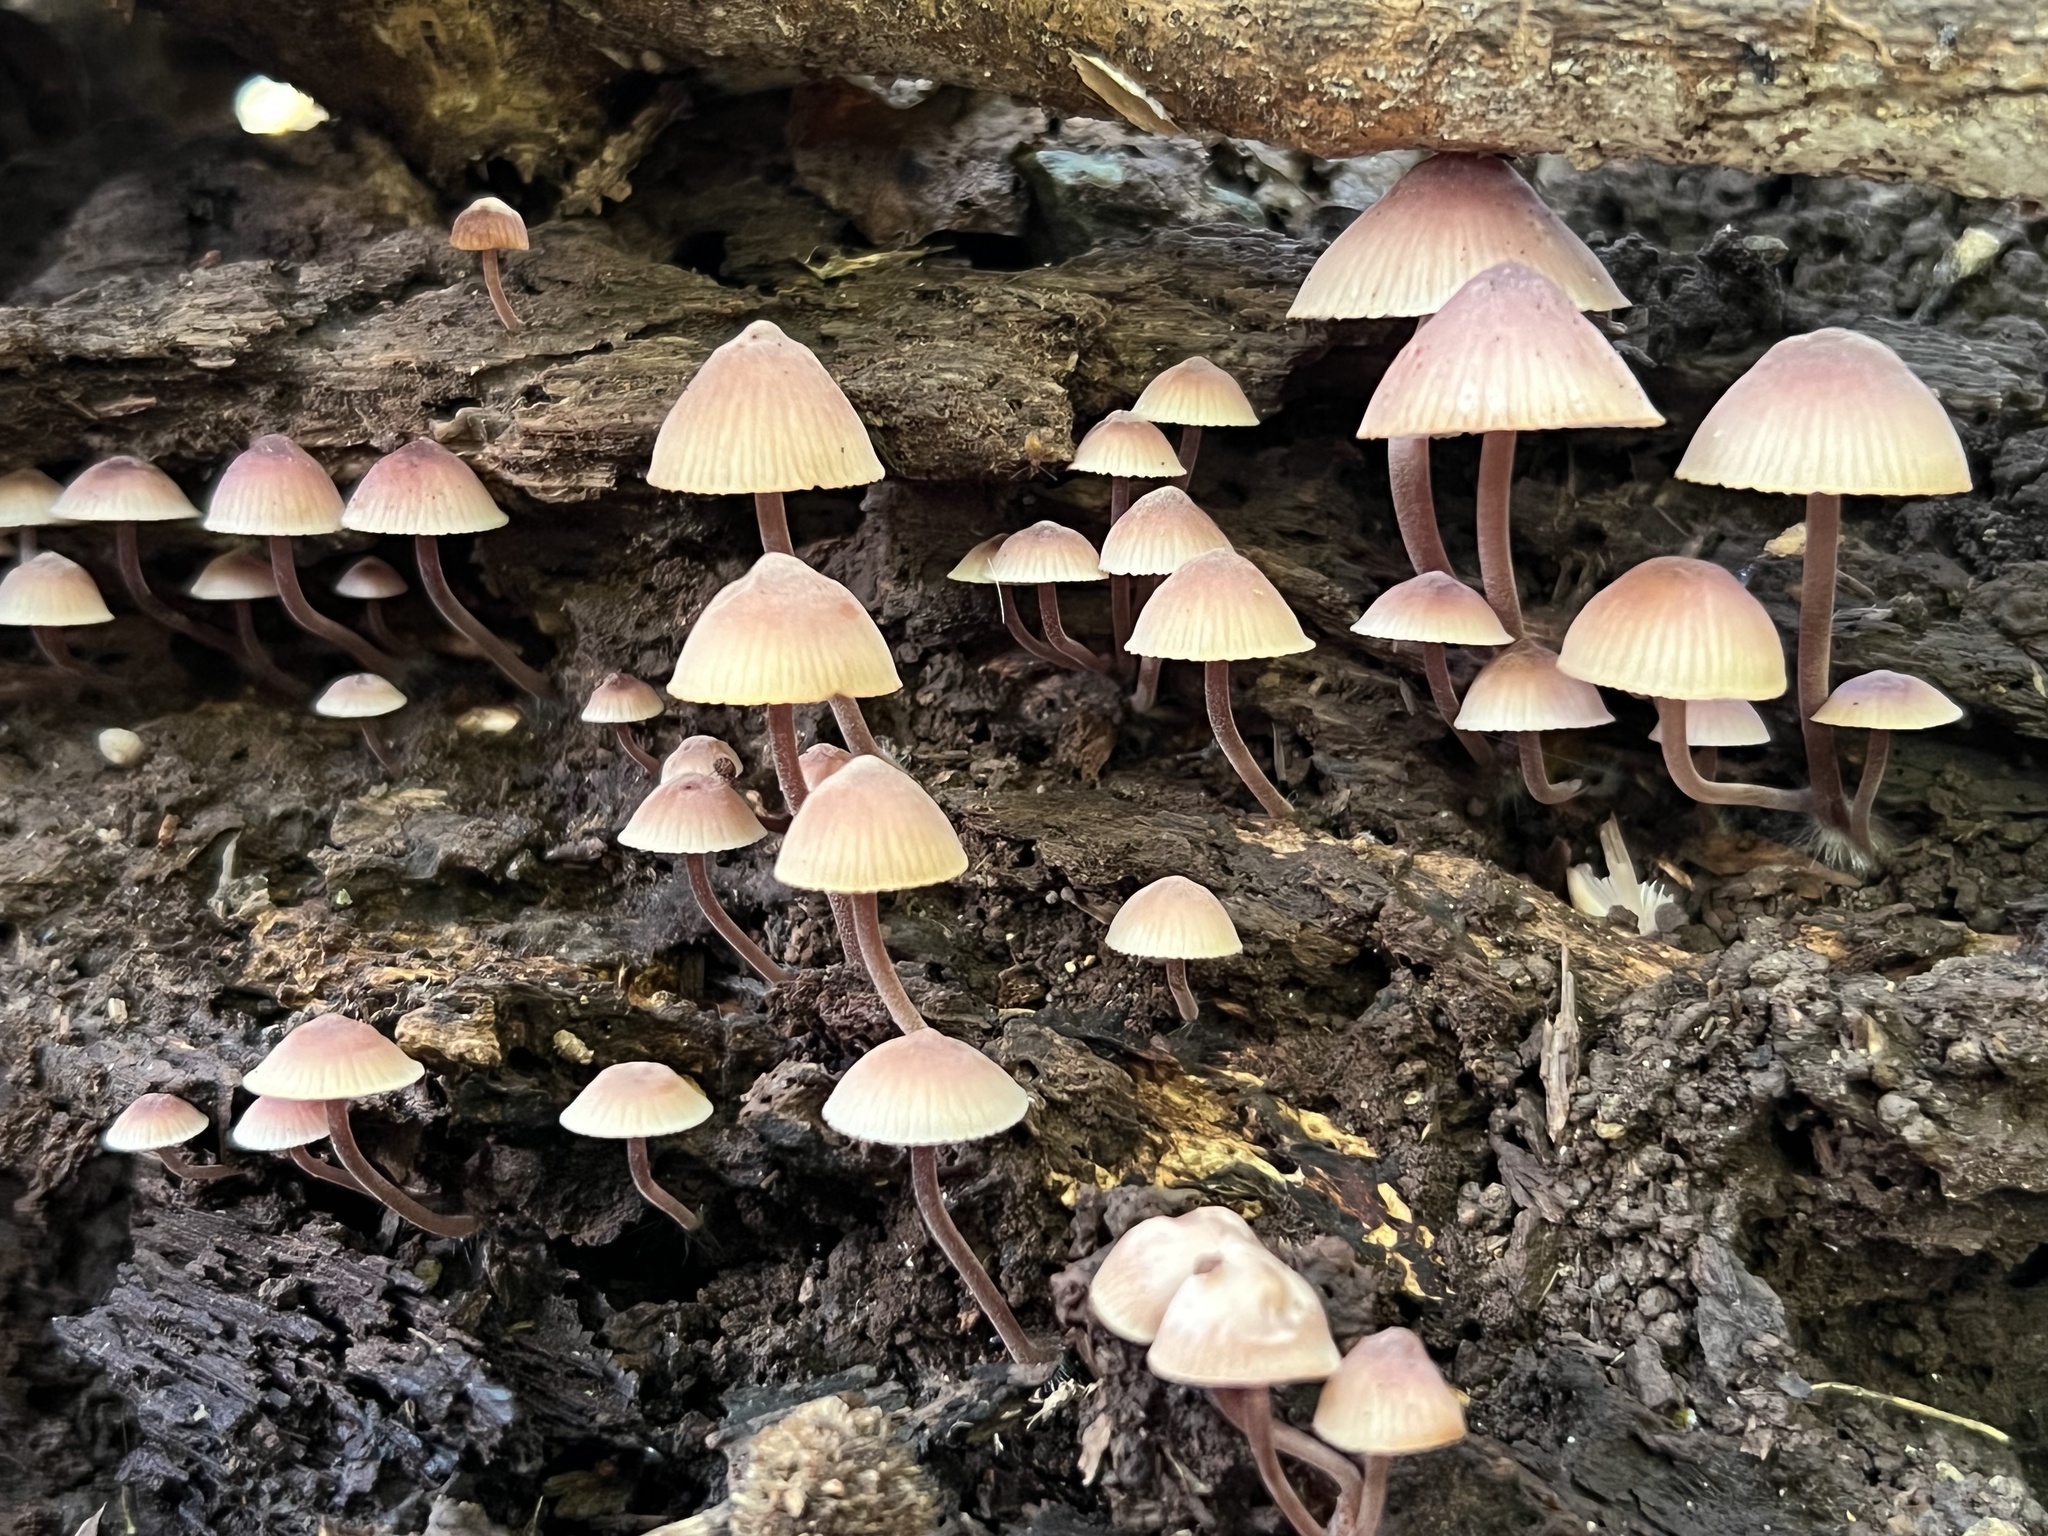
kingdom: Fungi
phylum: Basidiomycota
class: Agaricomycetes
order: Agaricales
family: Mycenaceae
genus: Mycena
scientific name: Mycena haematopus
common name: Burgundydrop bonnet
